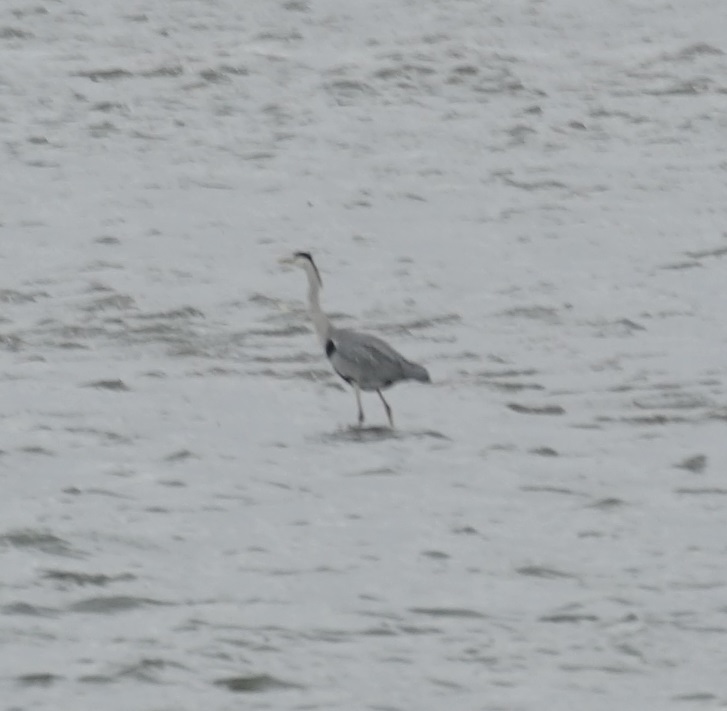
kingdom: Animalia
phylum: Chordata
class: Aves
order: Pelecaniformes
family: Ardeidae
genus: Ardea
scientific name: Ardea cinerea
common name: Grey heron
